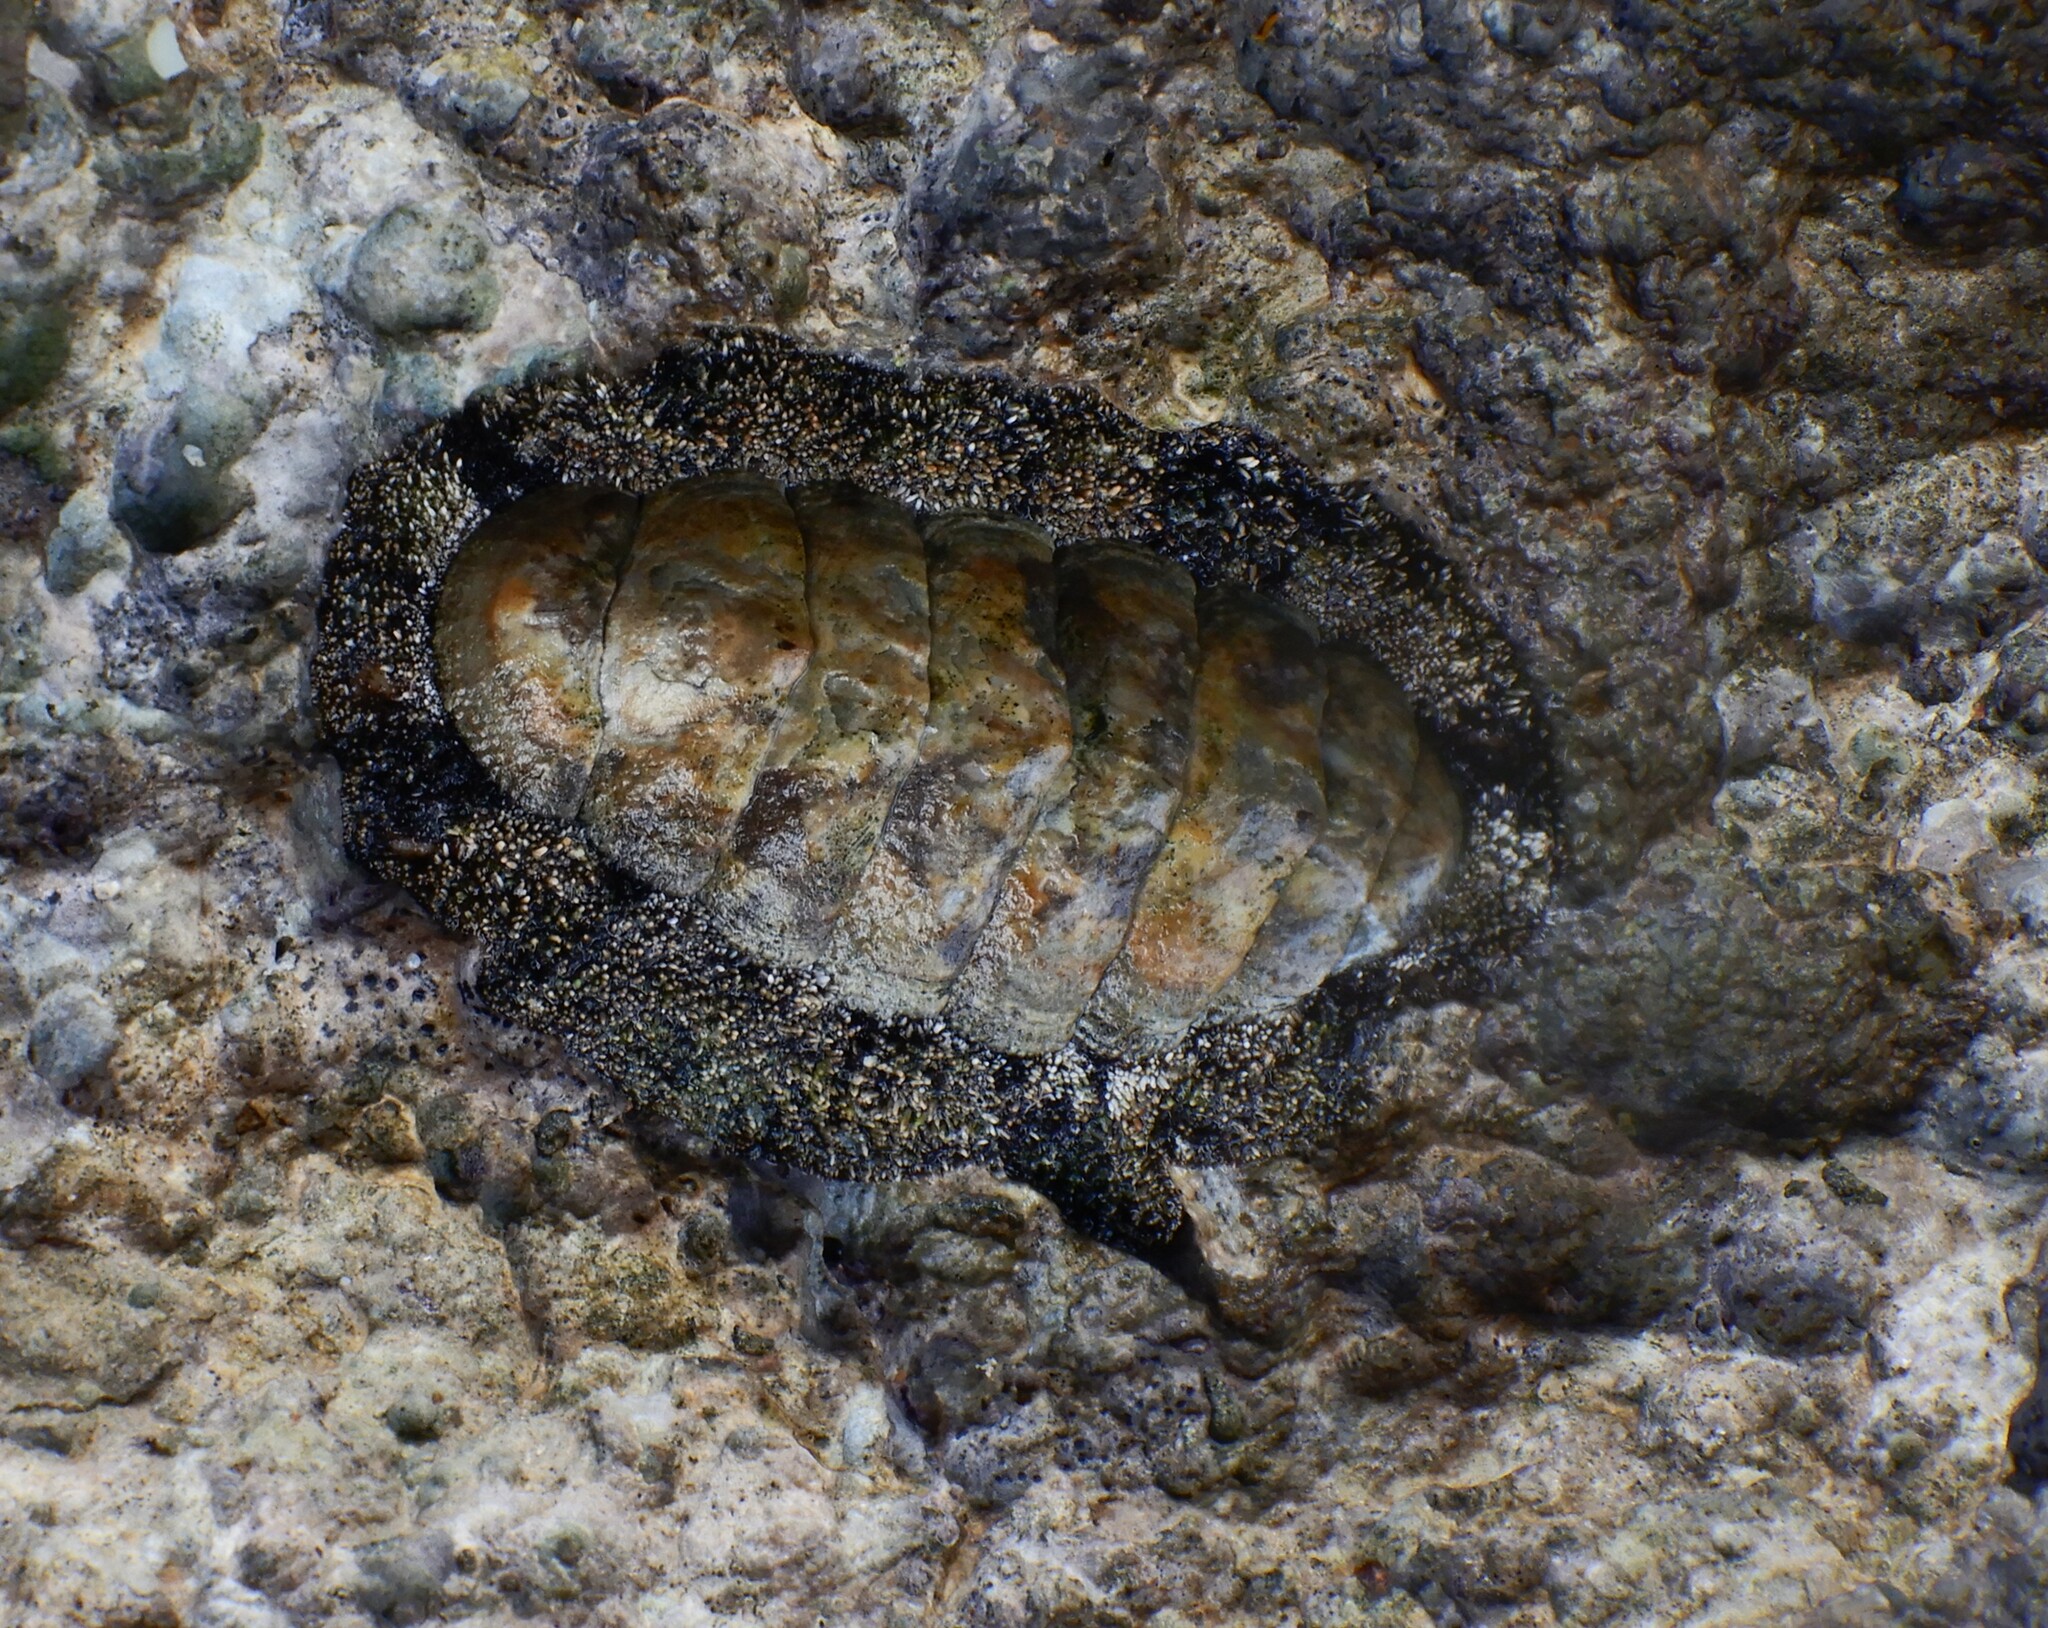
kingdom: Animalia
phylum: Mollusca
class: Polyplacophora
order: Chitonida
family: Chitonidae
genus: Acanthopleura
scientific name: Acanthopleura vaillantii
